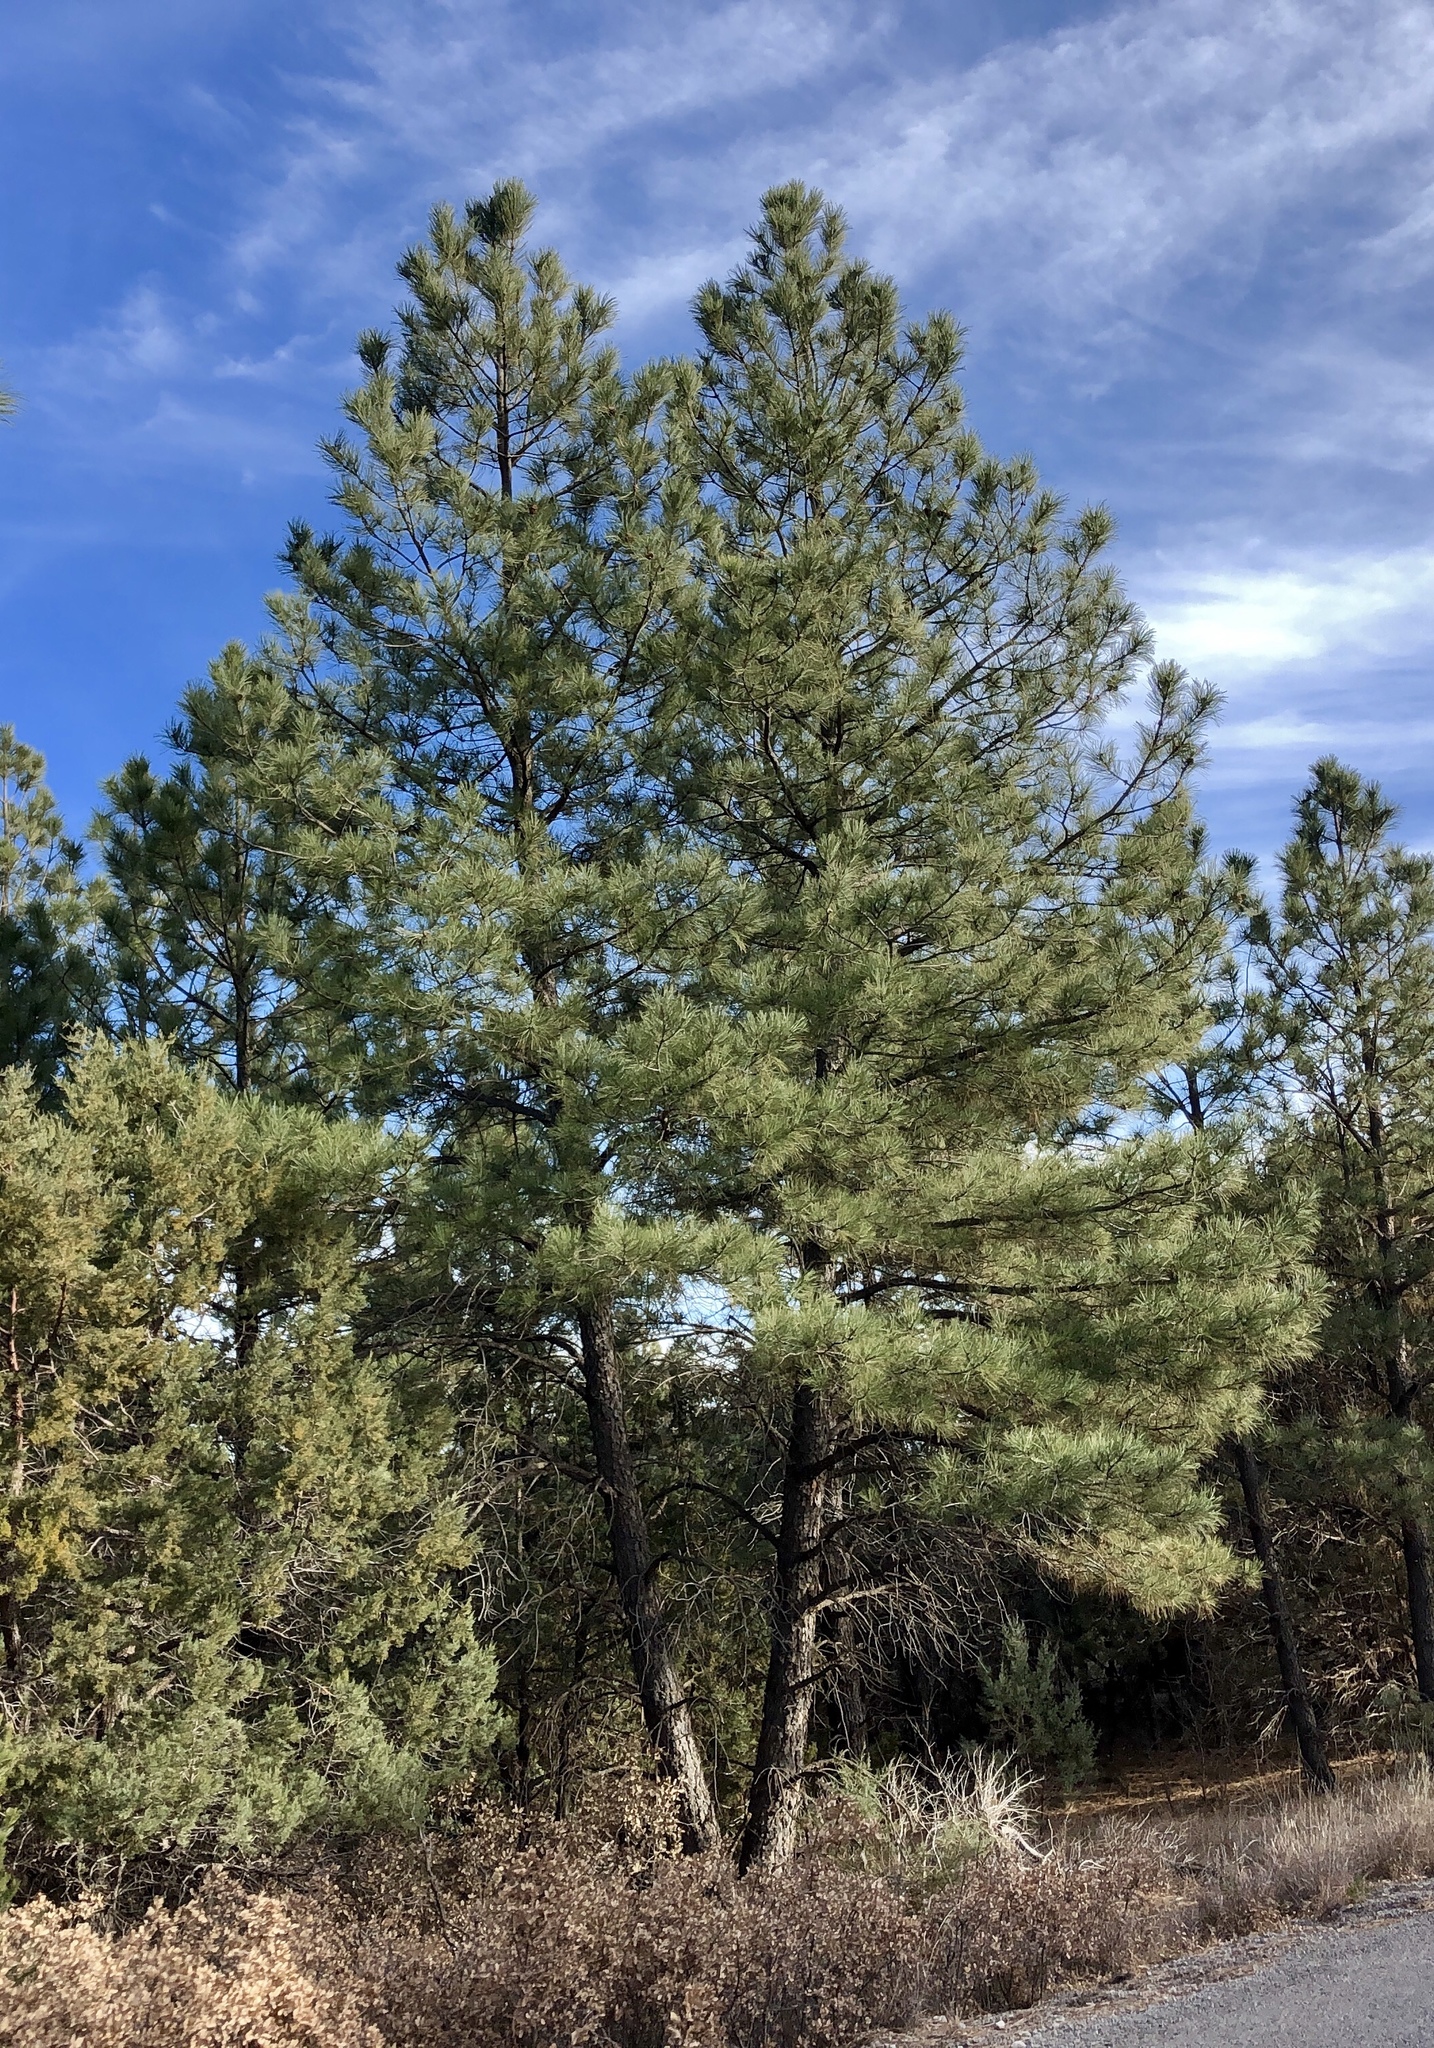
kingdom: Plantae
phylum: Tracheophyta
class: Pinopsida
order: Pinales
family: Pinaceae
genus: Pinus
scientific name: Pinus ponderosa
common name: Western yellow-pine
